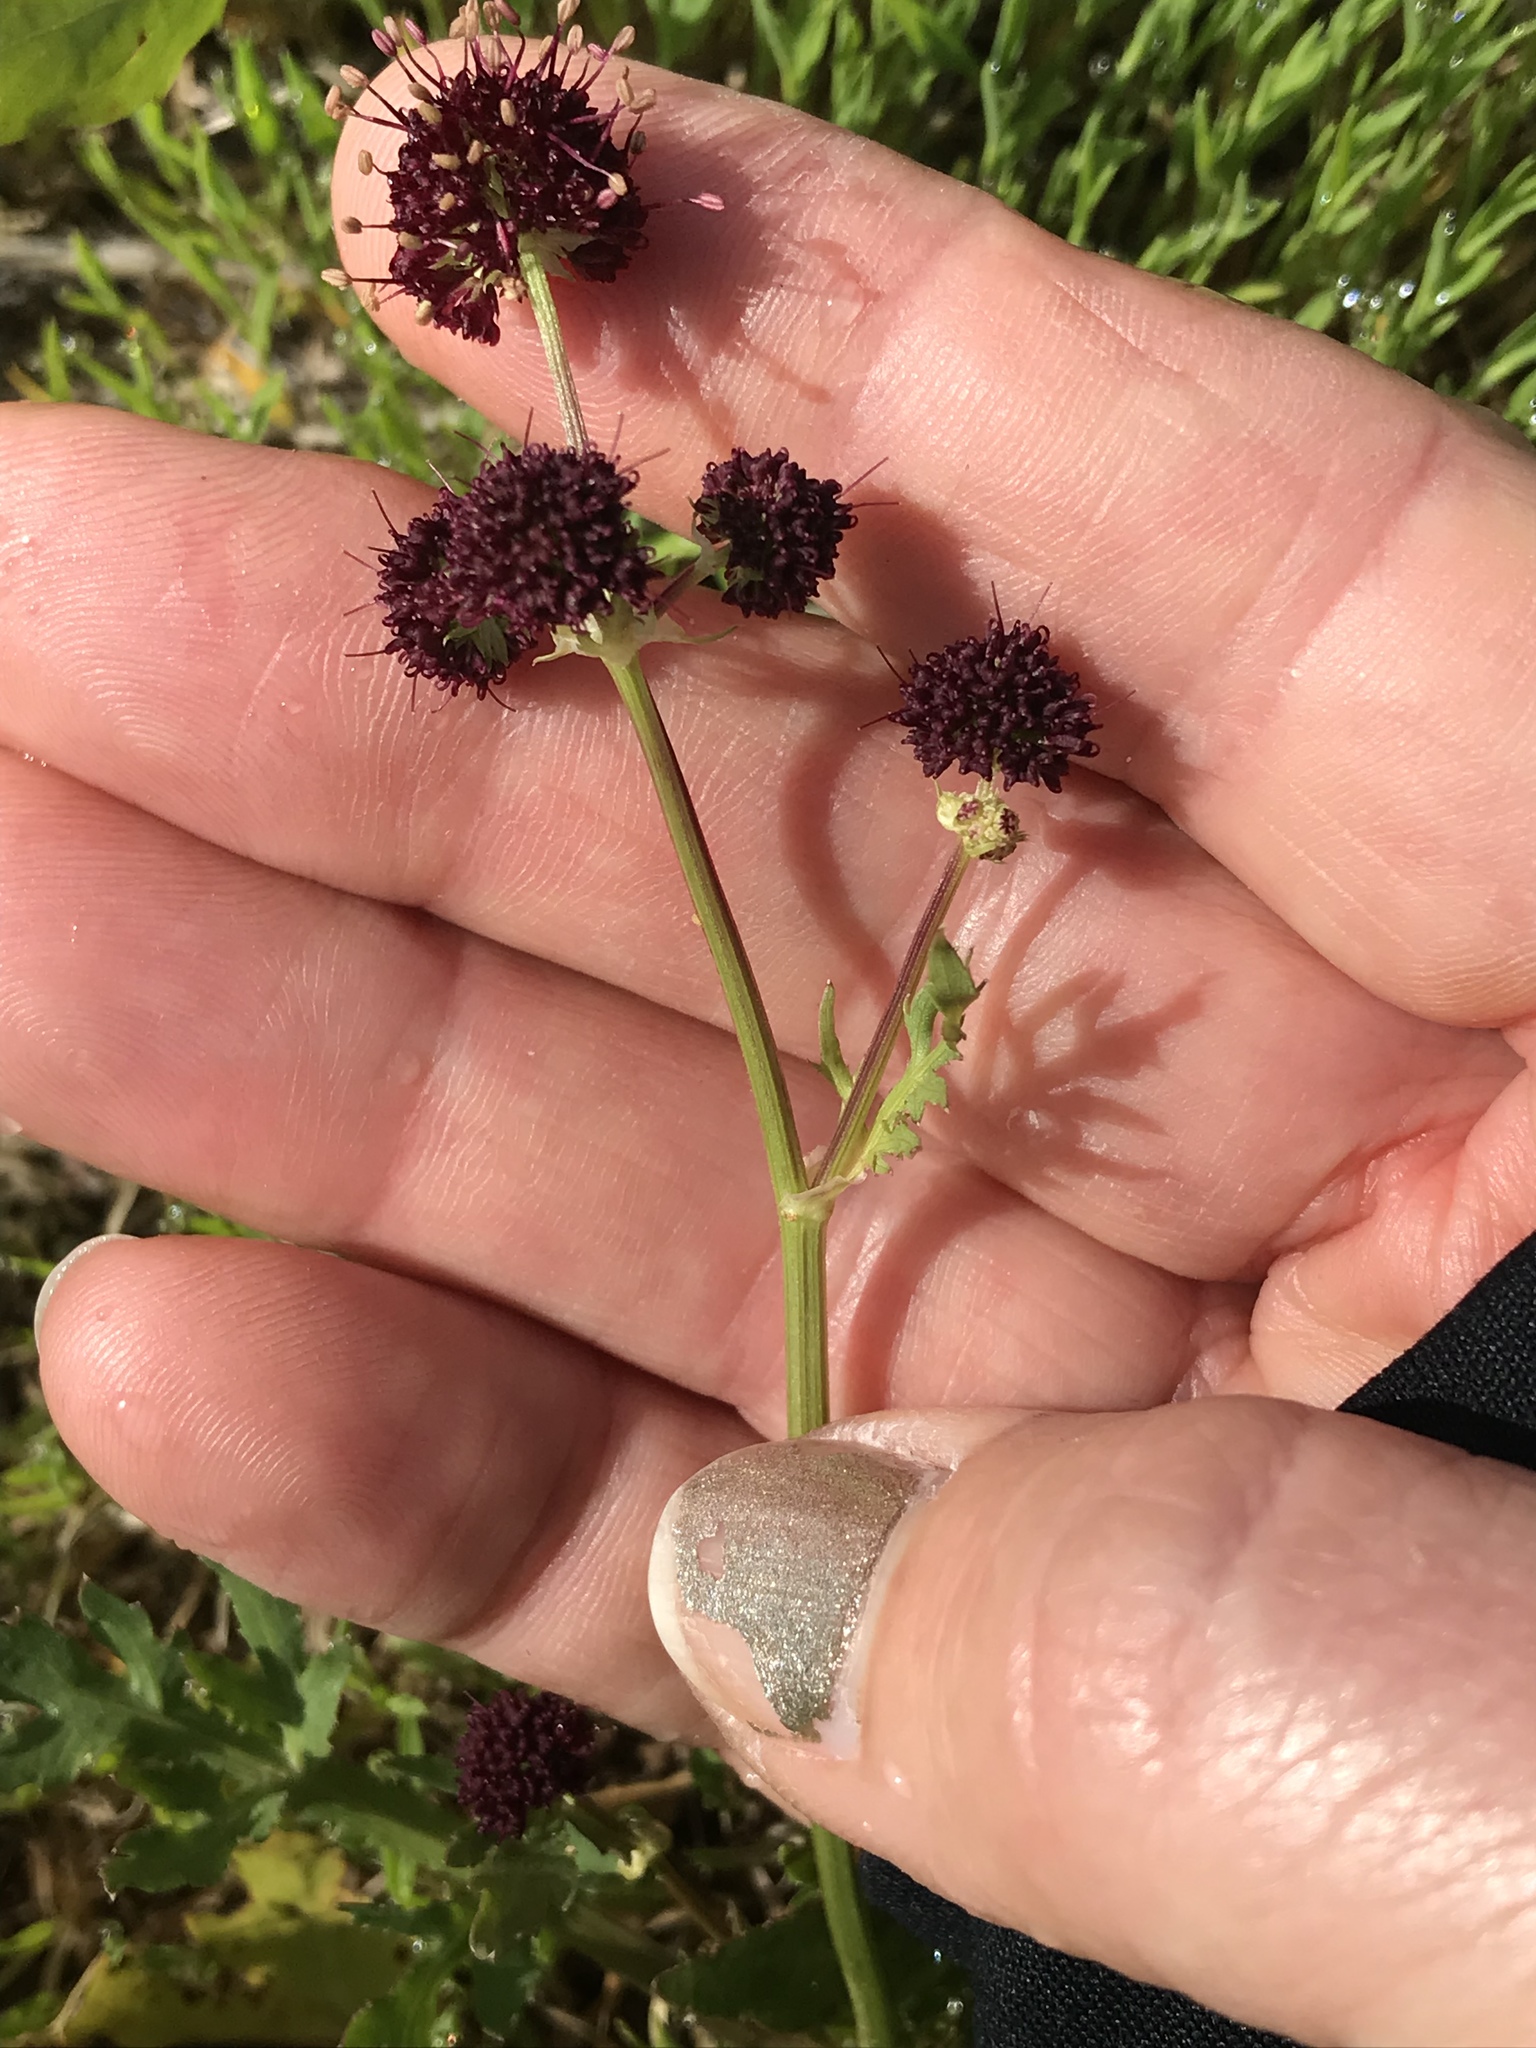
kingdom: Plantae
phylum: Tracheophyta
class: Magnoliopsida
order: Apiales
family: Apiaceae
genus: Sanicula
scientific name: Sanicula bipinnatifida
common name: Shoe-buttons
